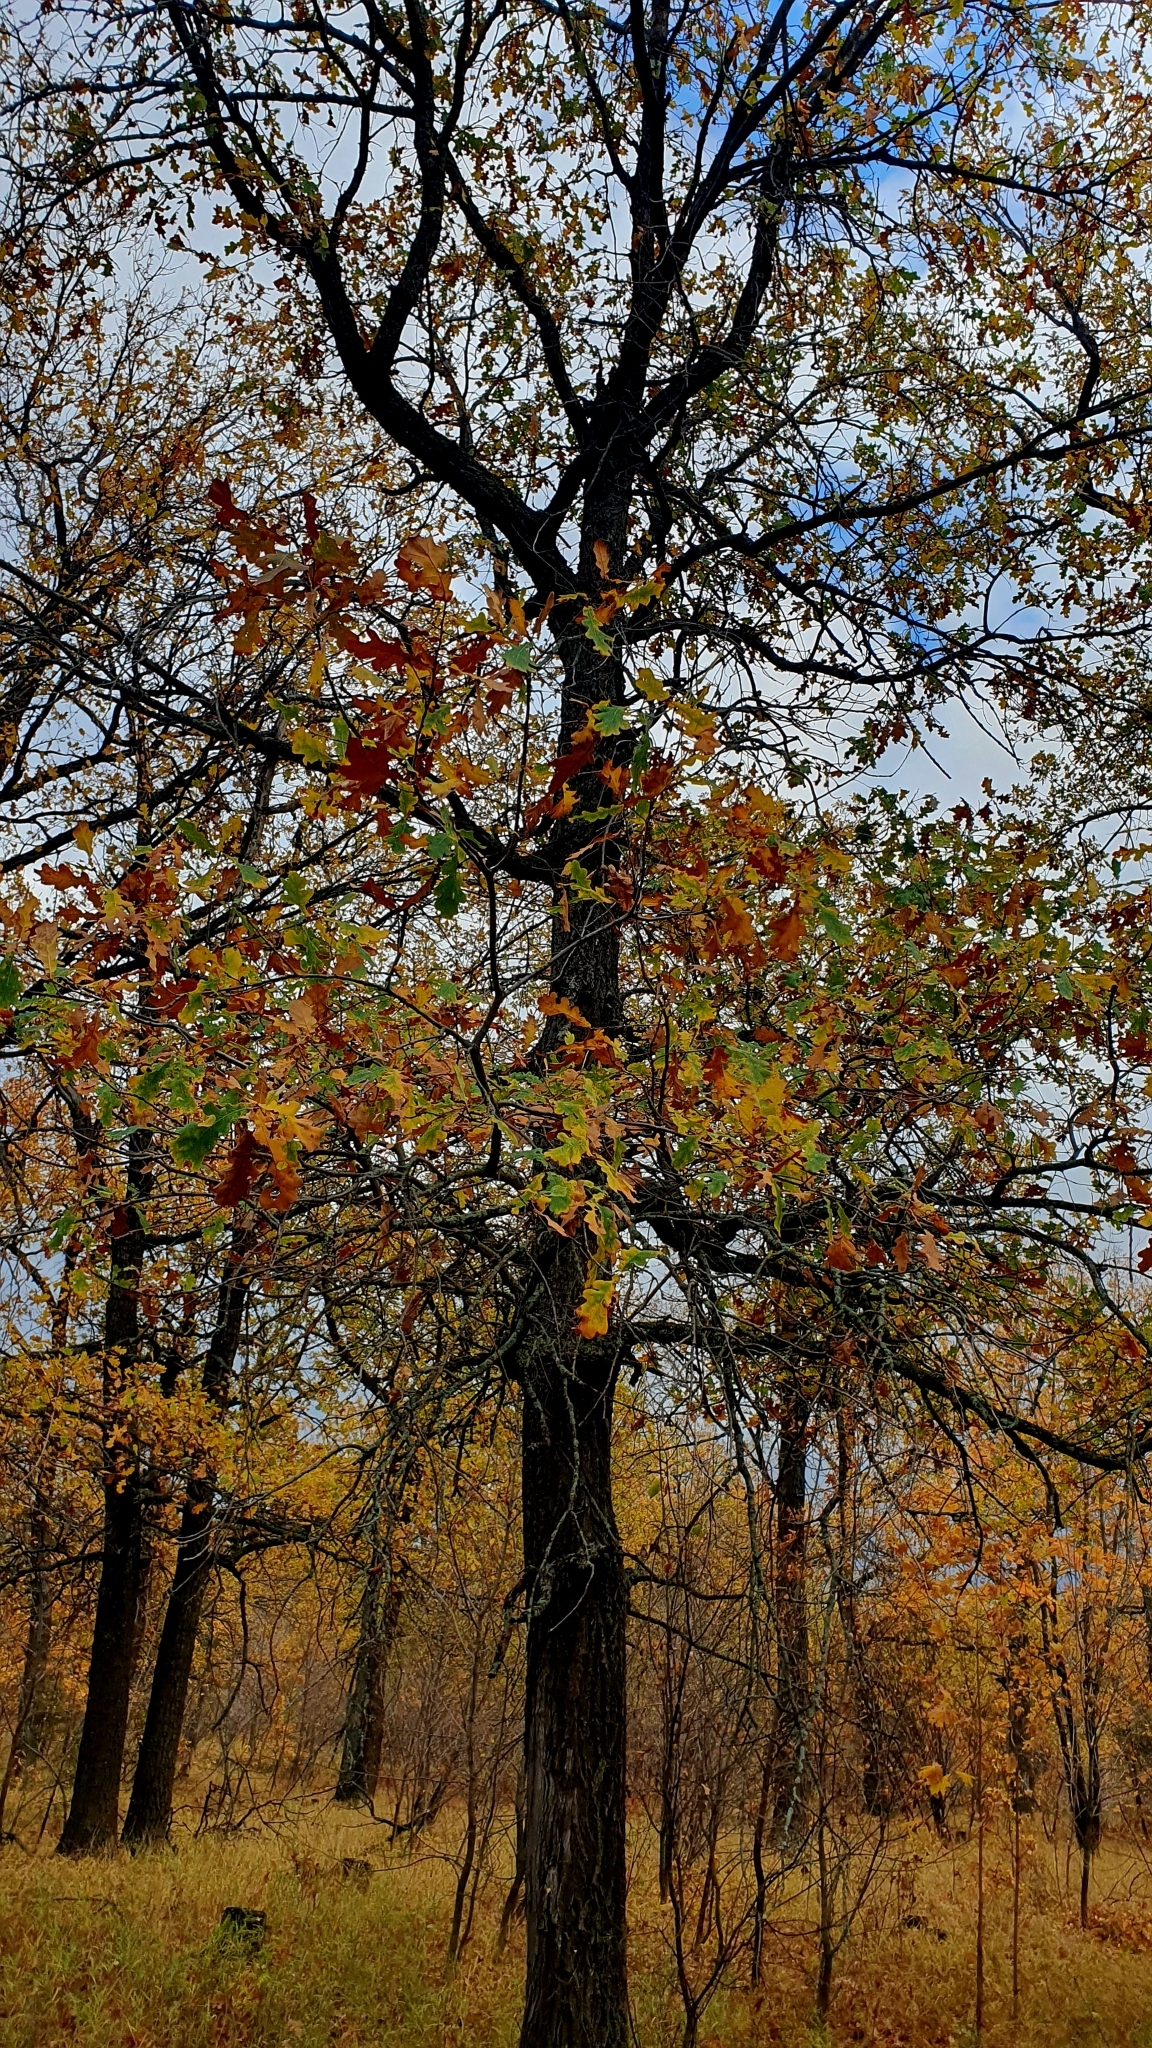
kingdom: Plantae
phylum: Tracheophyta
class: Magnoliopsida
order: Fagales
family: Fagaceae
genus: Quercus
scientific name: Quercus robur
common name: Pedunculate oak
